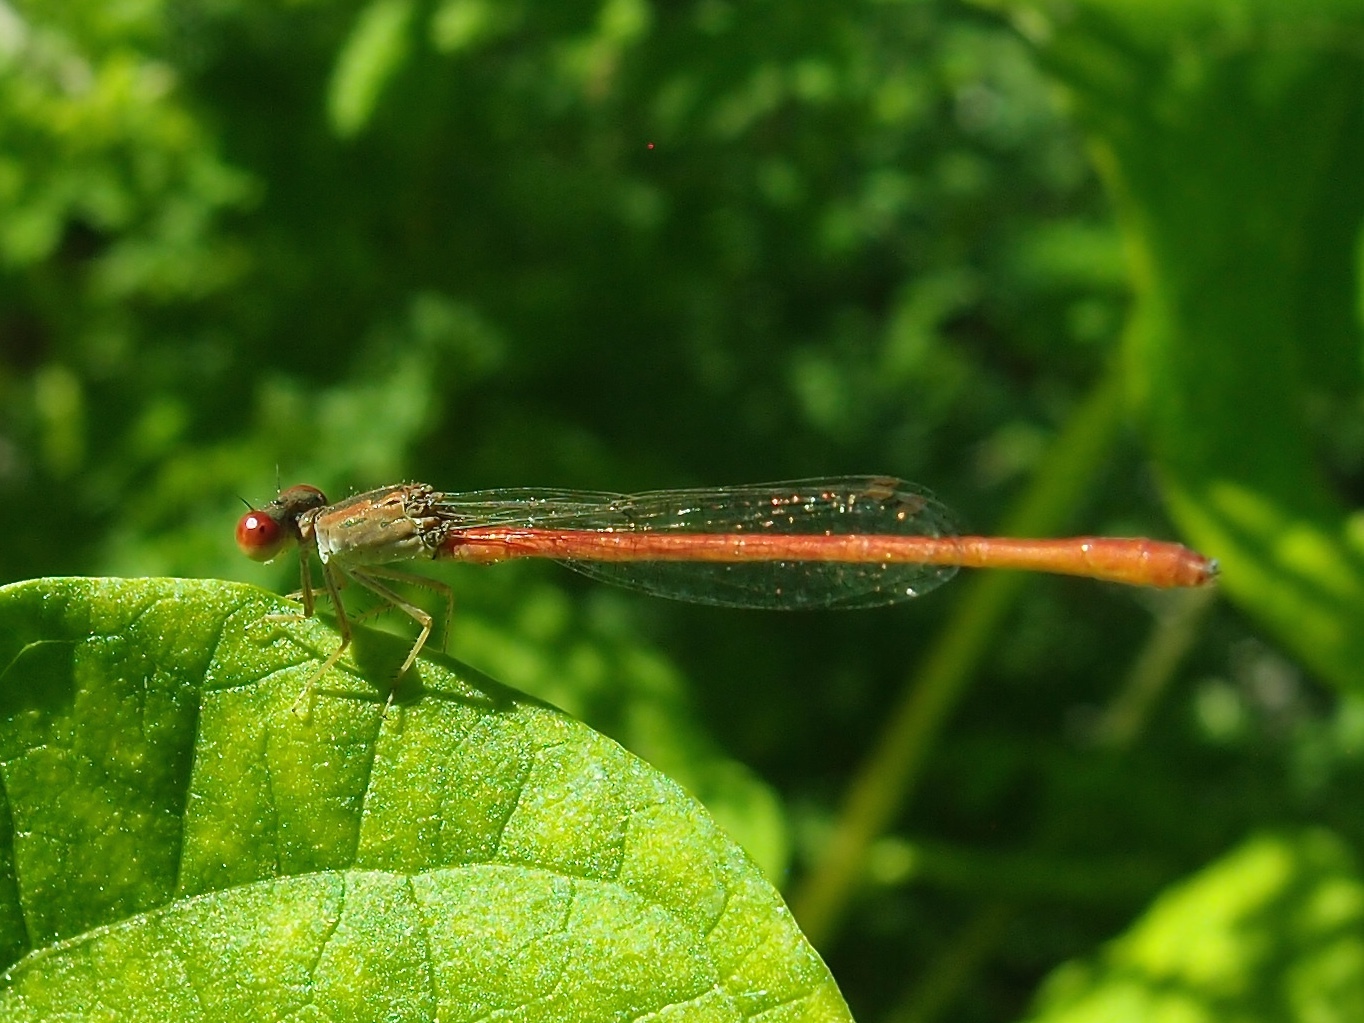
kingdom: Animalia
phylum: Arthropoda
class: Insecta
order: Odonata
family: Coenagrionidae
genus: Telebasis
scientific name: Telebasis salva
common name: Desert firetail
